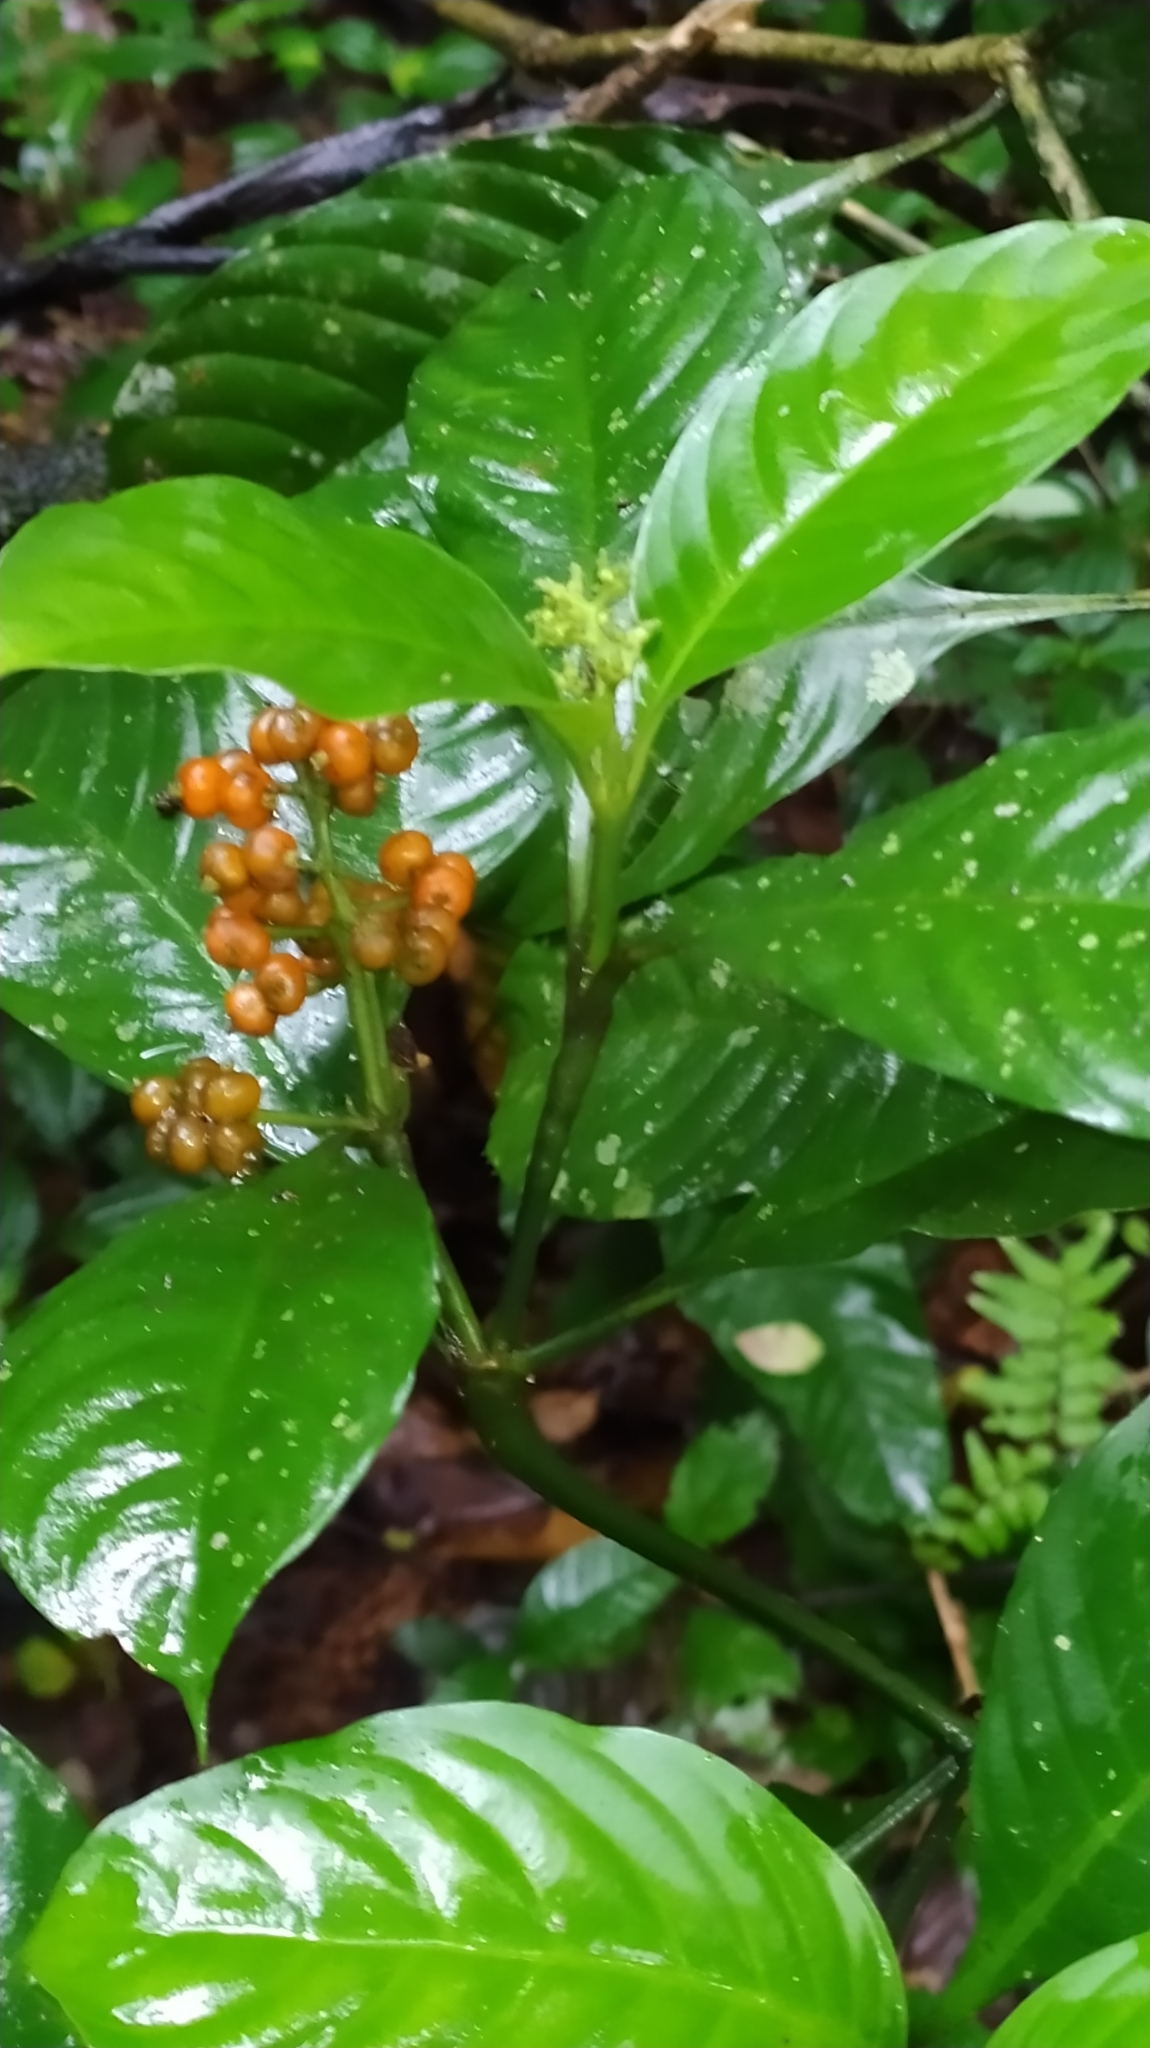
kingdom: Plantae
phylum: Tracheophyta
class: Magnoliopsida
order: Gentianales
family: Rubiaceae
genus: Palicourea
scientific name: Palicourea racemosa
